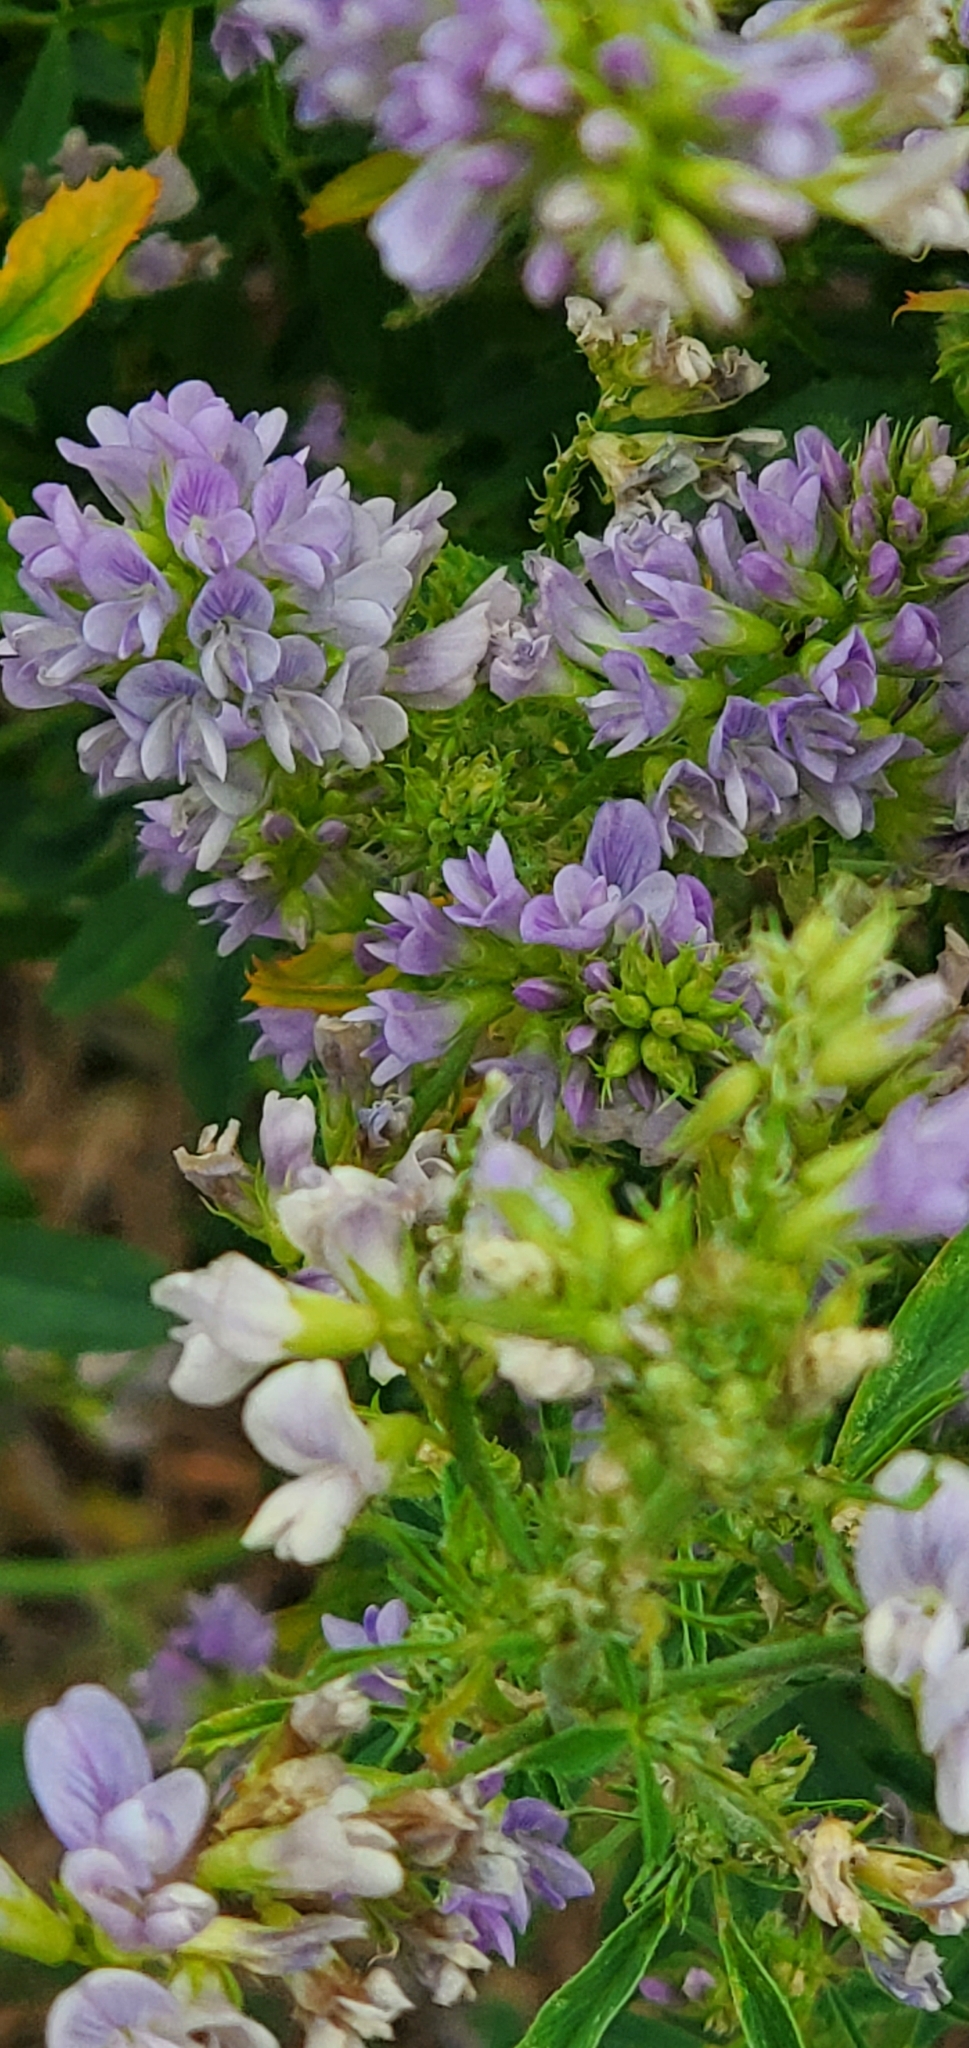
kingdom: Plantae
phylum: Tracheophyta
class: Magnoliopsida
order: Fabales
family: Fabaceae
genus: Medicago
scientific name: Medicago sativa
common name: Alfalfa
